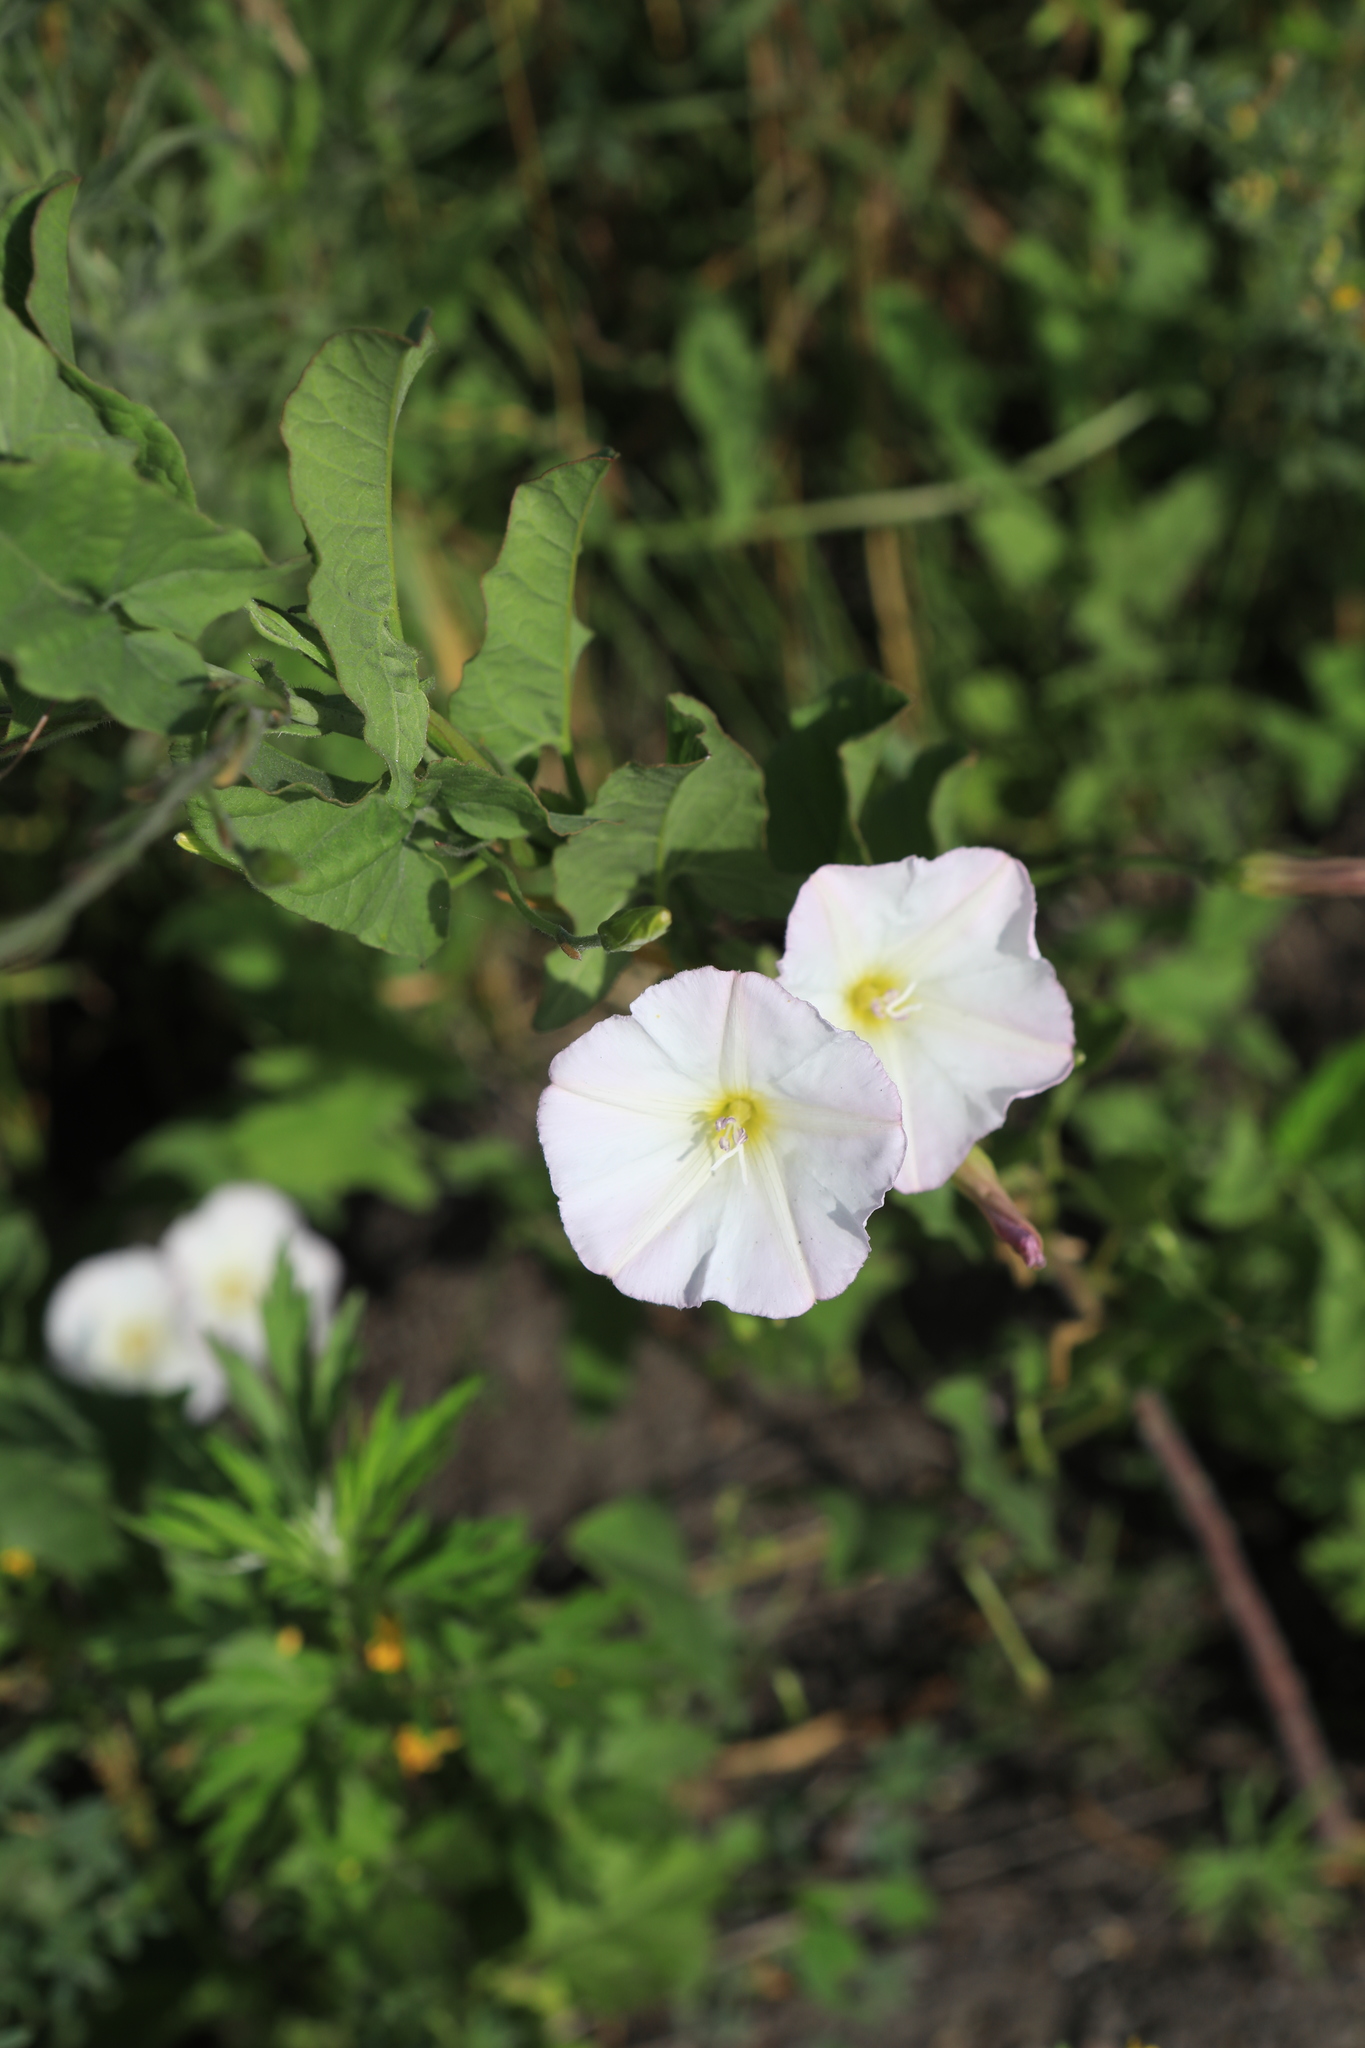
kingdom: Plantae
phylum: Tracheophyta
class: Magnoliopsida
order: Solanales
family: Convolvulaceae
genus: Convolvulus
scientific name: Convolvulus arvensis
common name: Field bindweed
